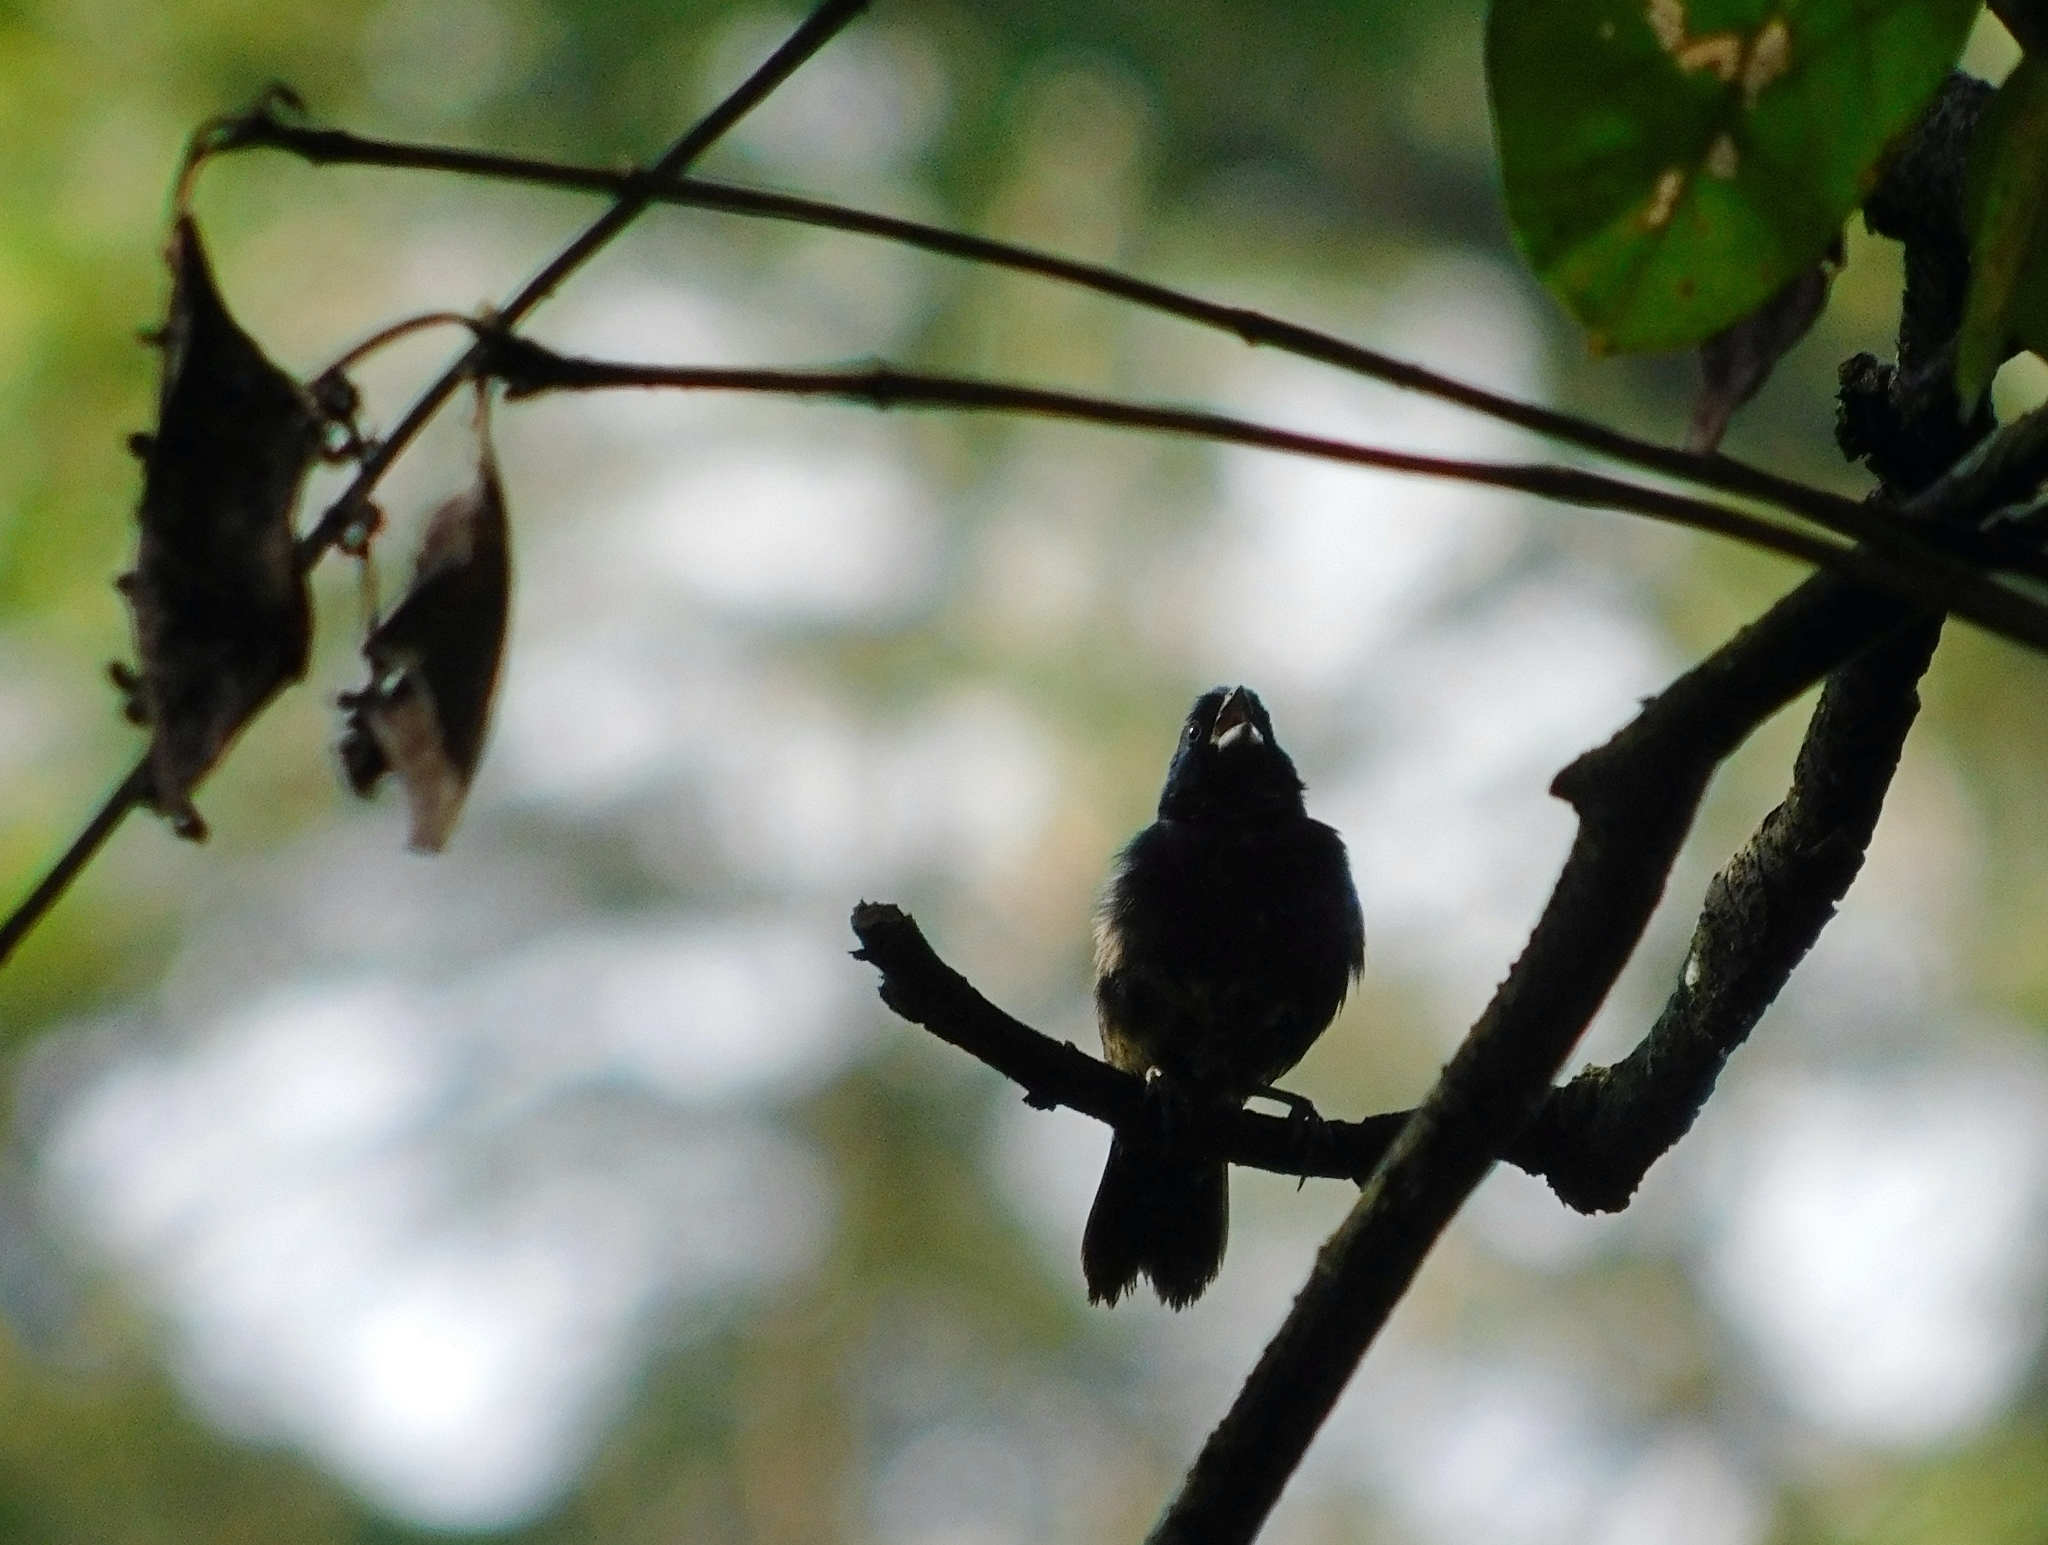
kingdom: Animalia
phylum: Chordata
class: Aves
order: Passeriformes
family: Thraupidae
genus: Volatinia
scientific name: Volatinia jacarina
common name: Blue-black grassquit
